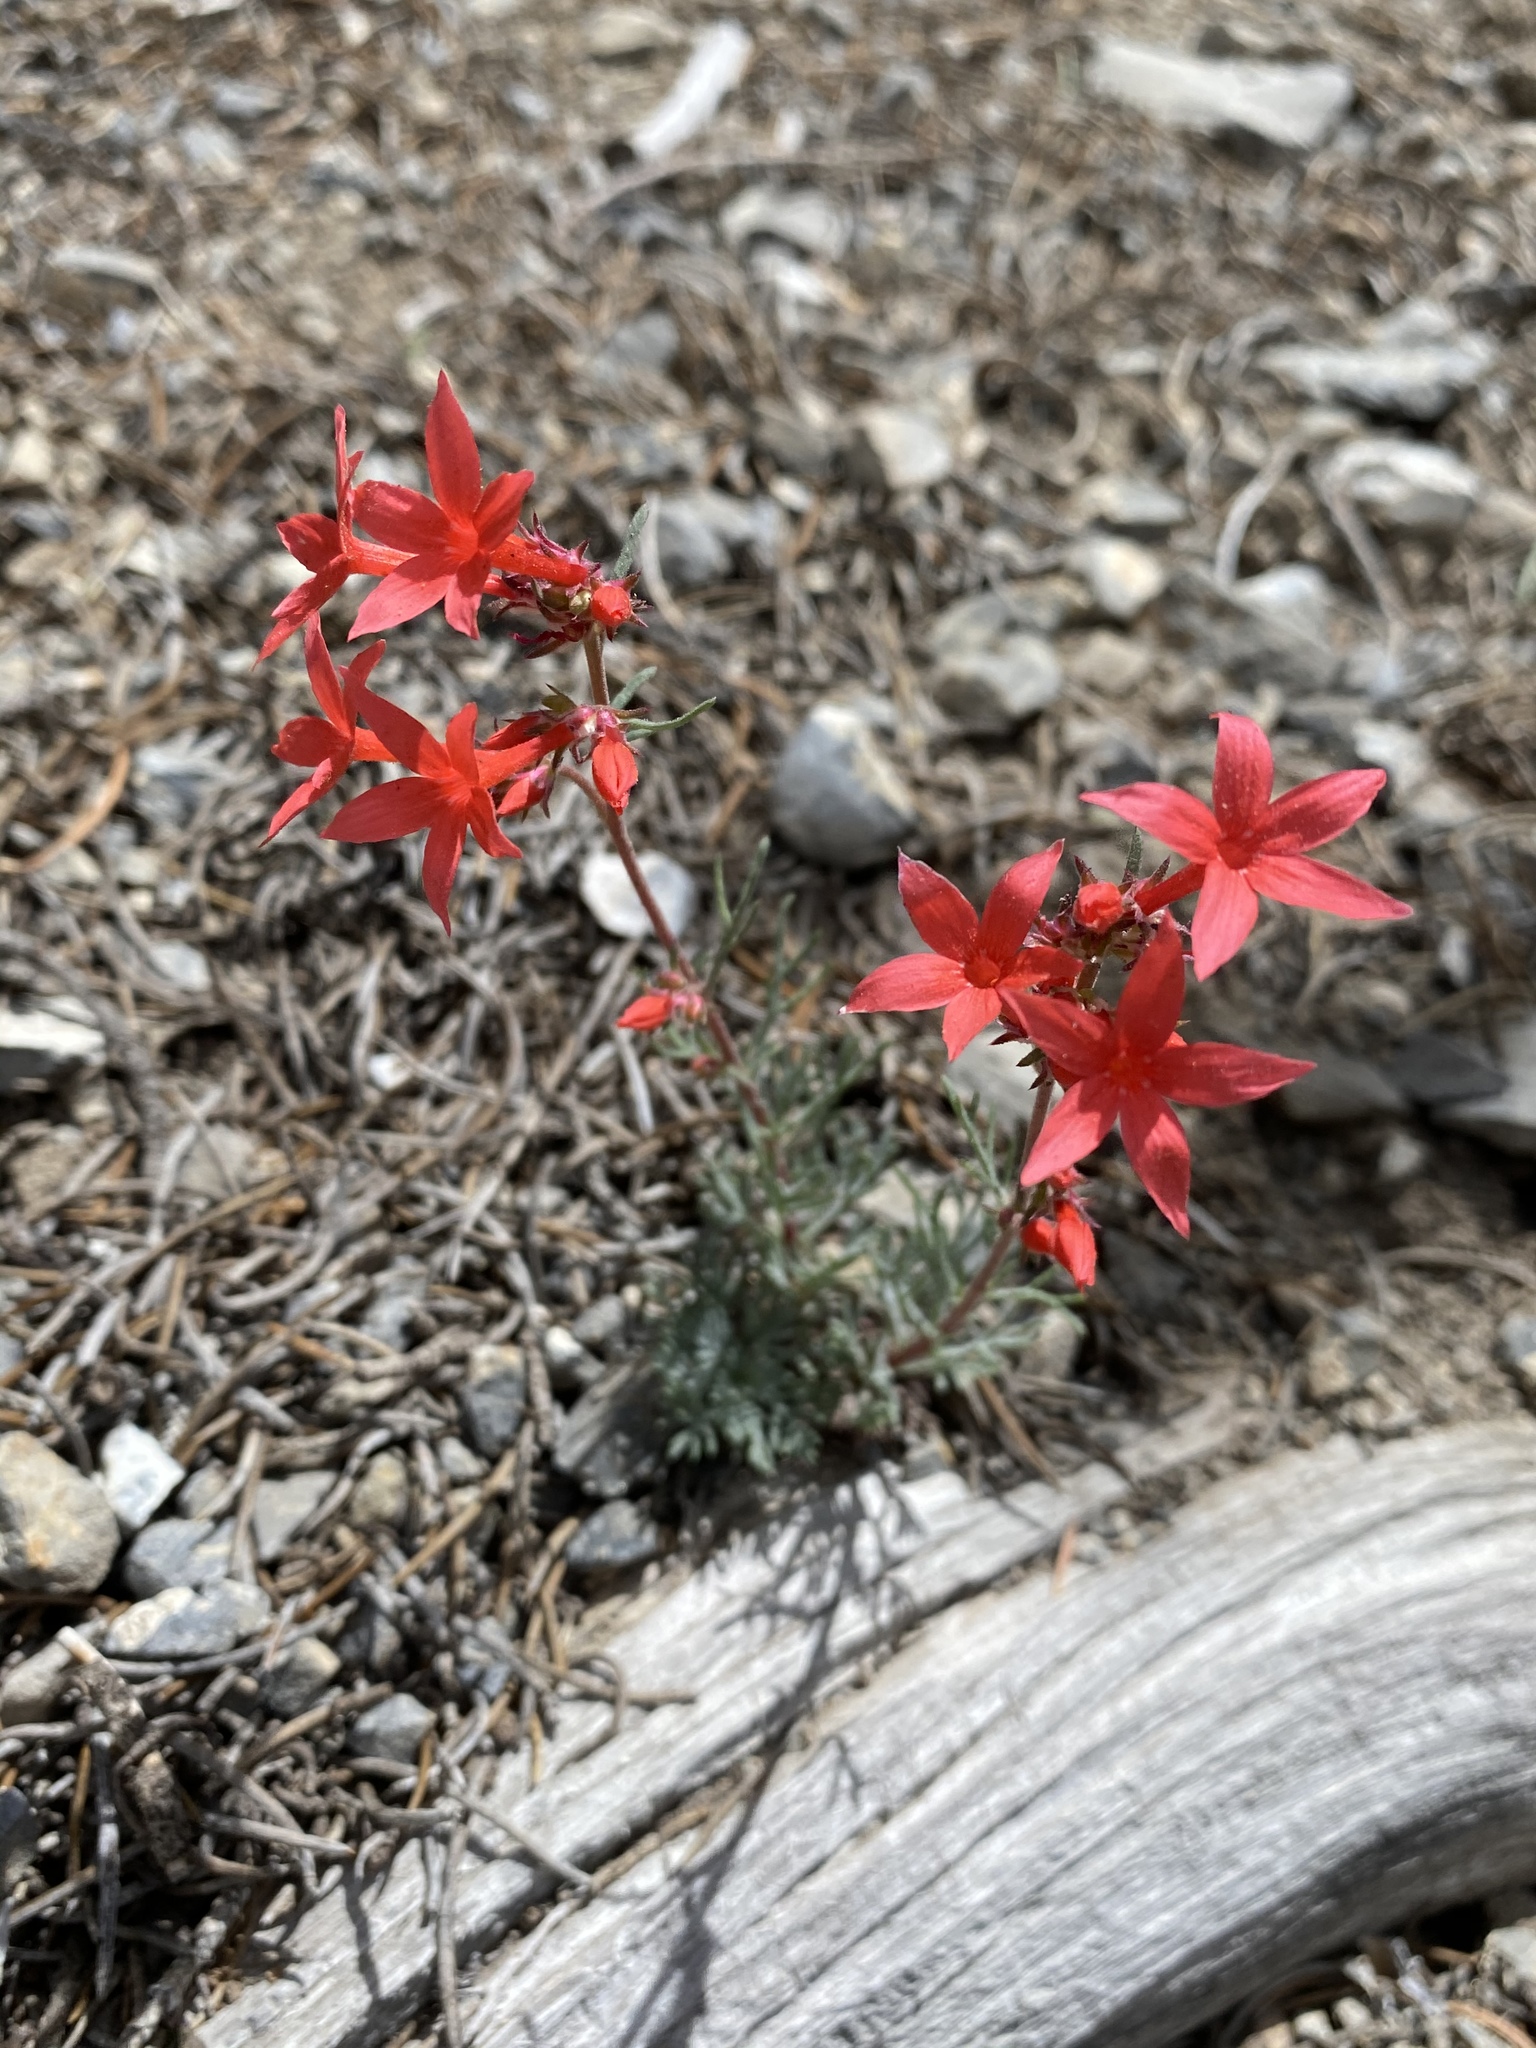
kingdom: Plantae
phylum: Tracheophyta
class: Magnoliopsida
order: Ericales
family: Polemoniaceae
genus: Ipomopsis
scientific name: Ipomopsis arizonica
